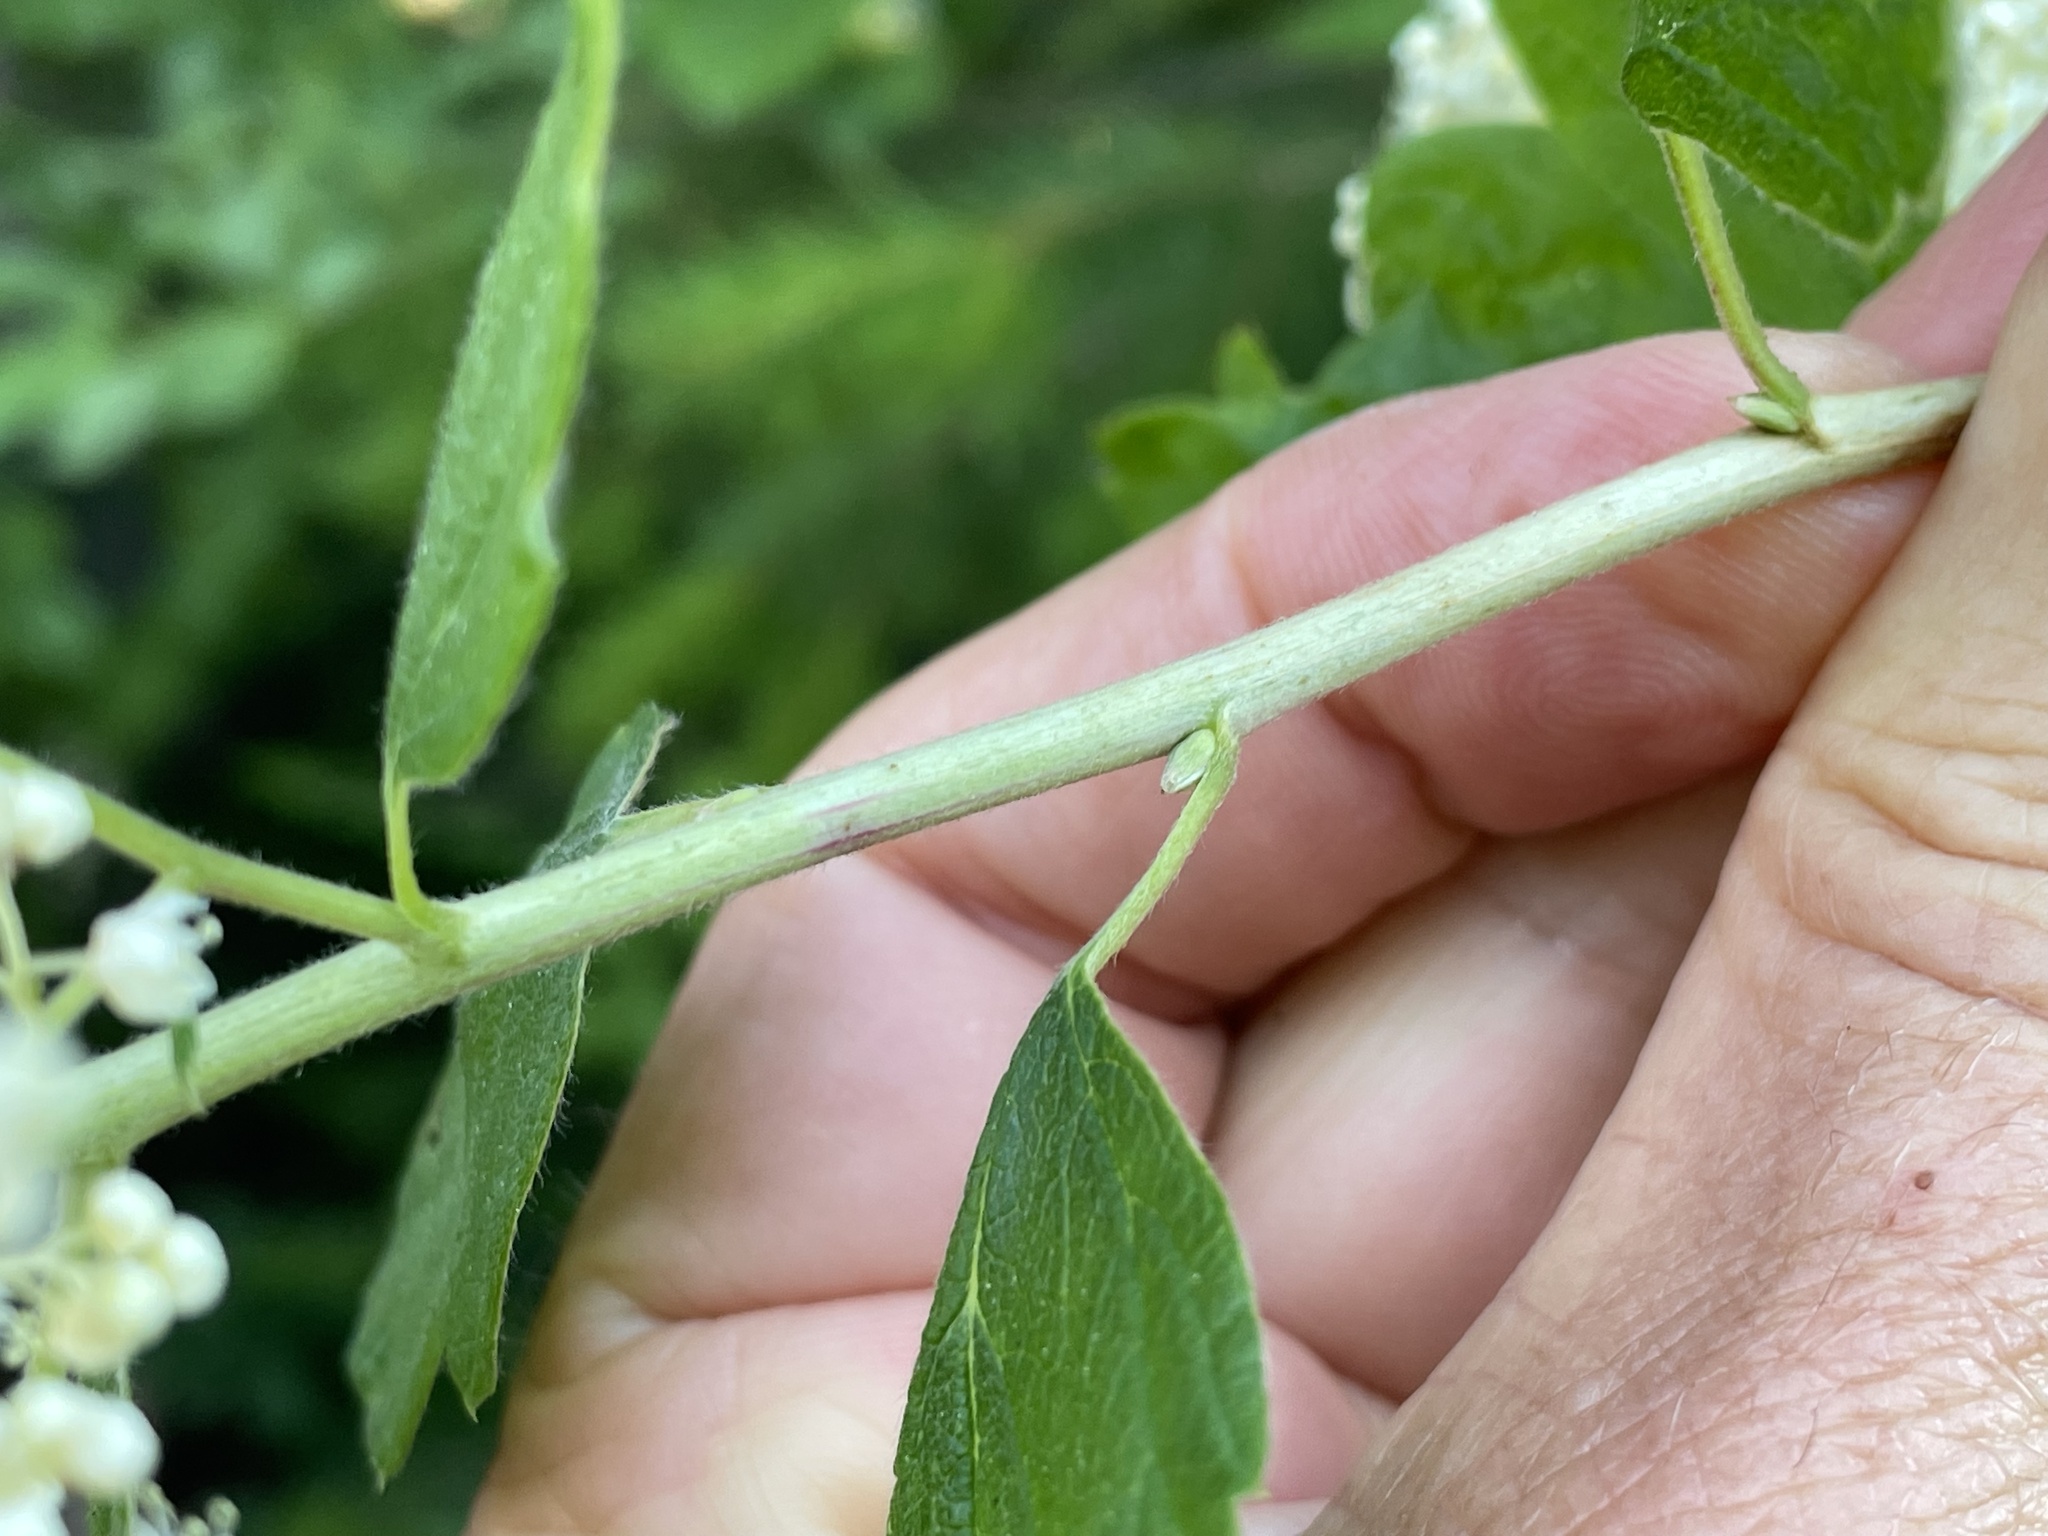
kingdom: Plantae
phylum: Tracheophyta
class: Magnoliopsida
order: Rosales
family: Rosaceae
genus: Holodiscus
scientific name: Holodiscus discolor
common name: Oceanspray
